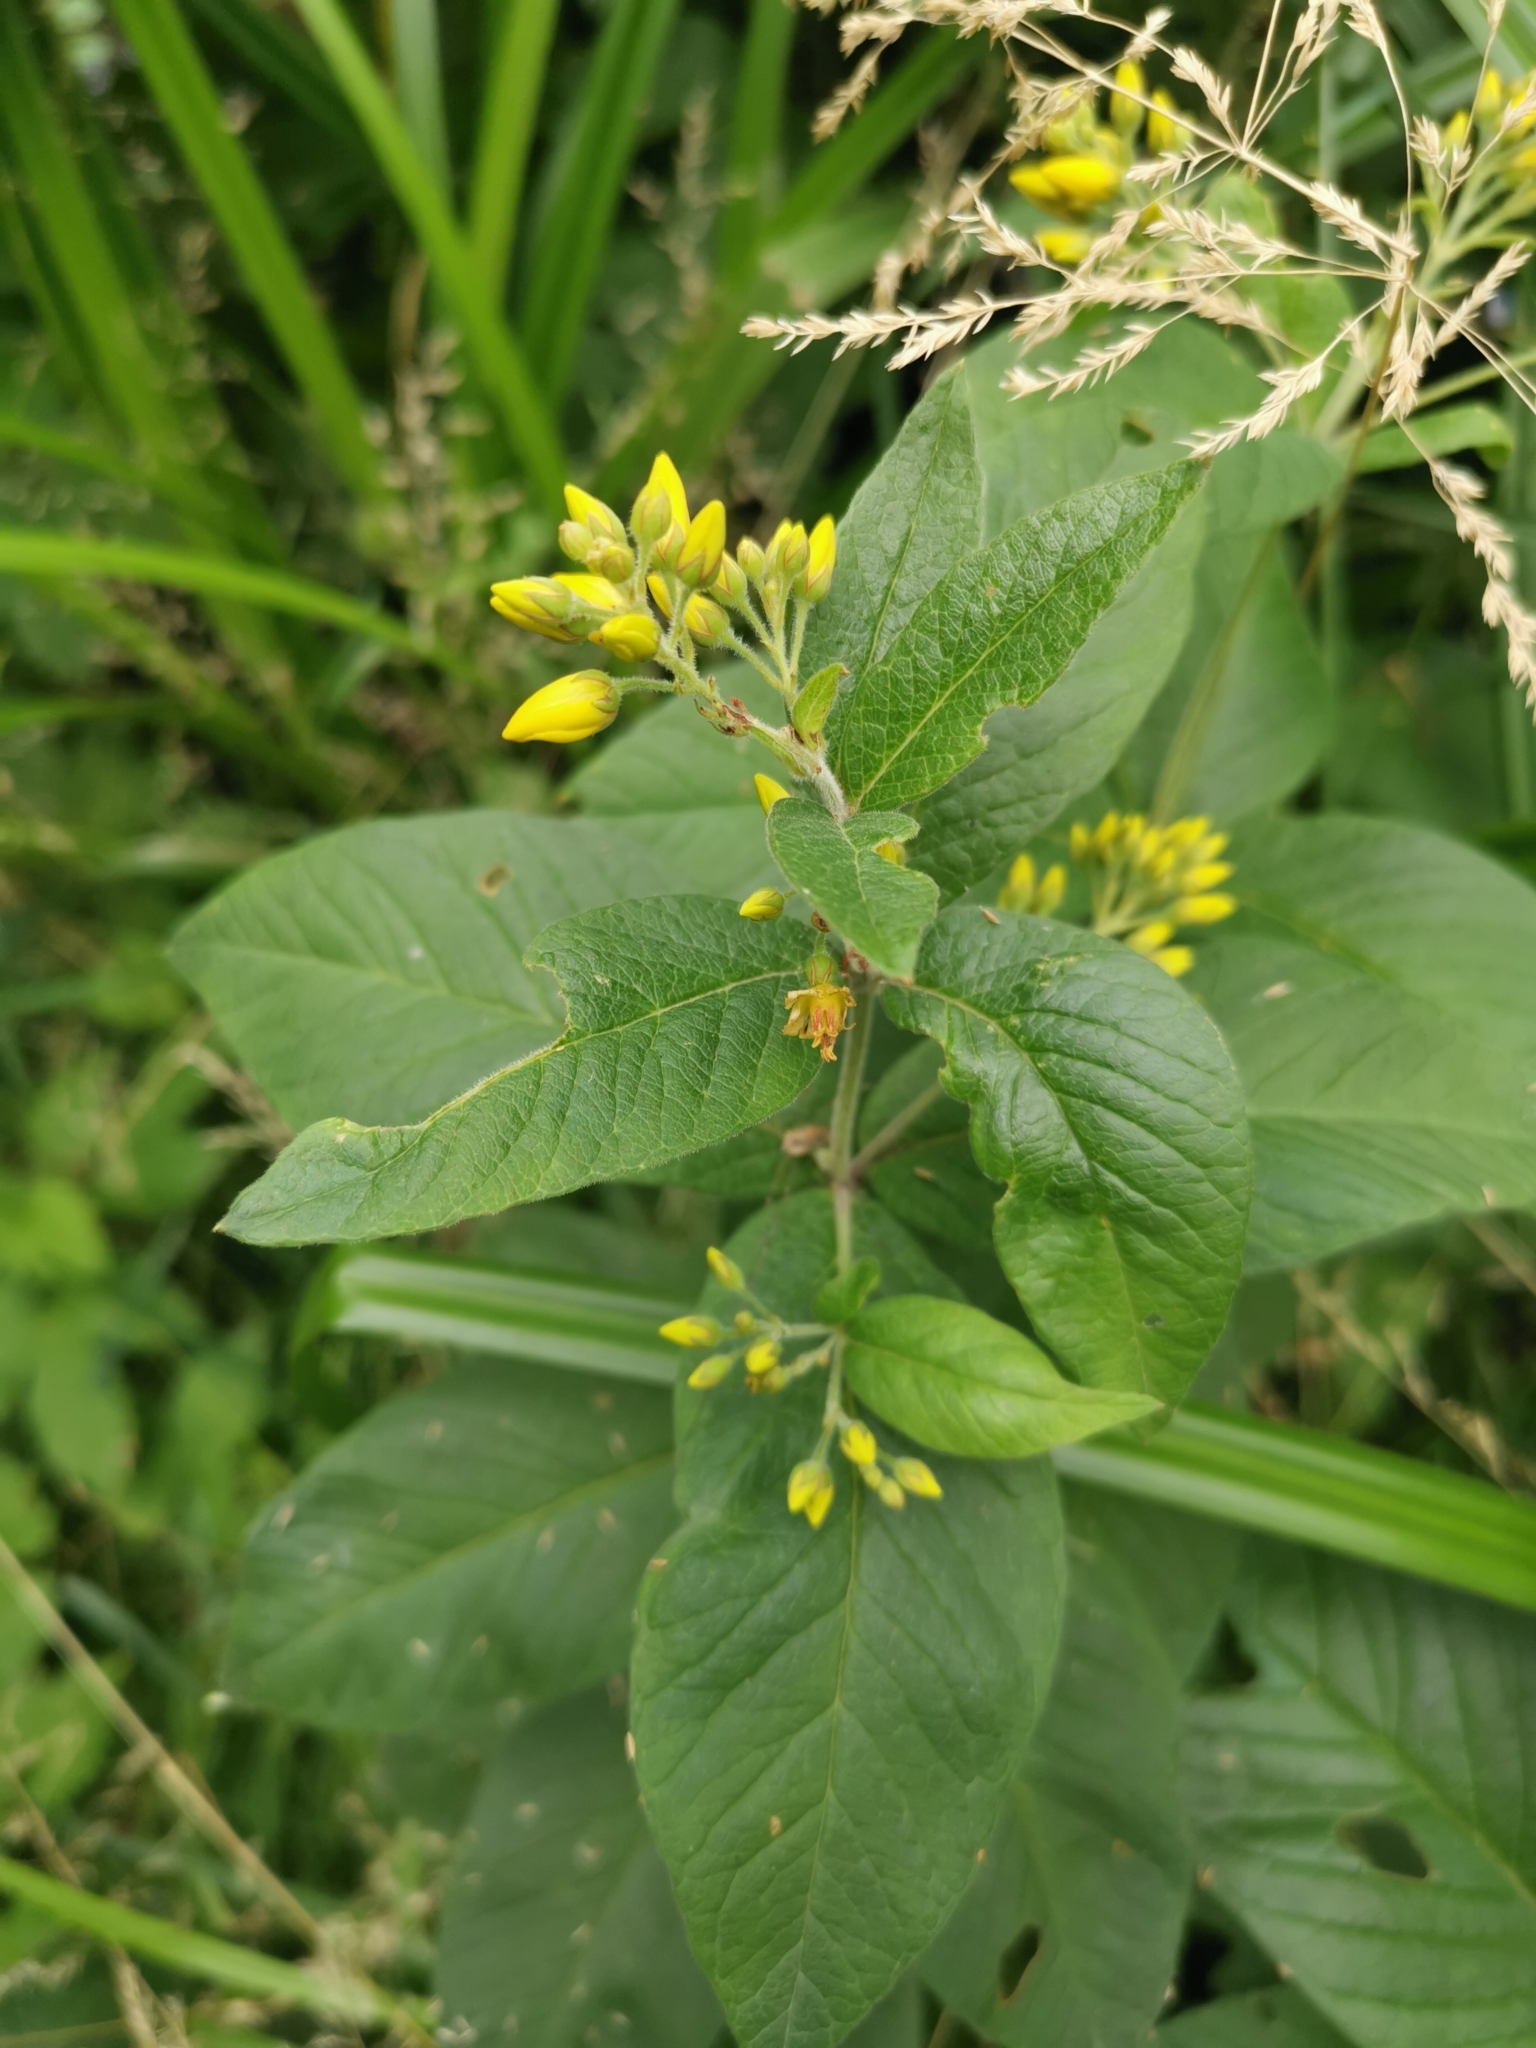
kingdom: Plantae
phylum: Tracheophyta
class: Magnoliopsida
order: Ericales
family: Primulaceae
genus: Lysimachia
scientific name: Lysimachia vulgaris
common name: Yellow loosestrife
